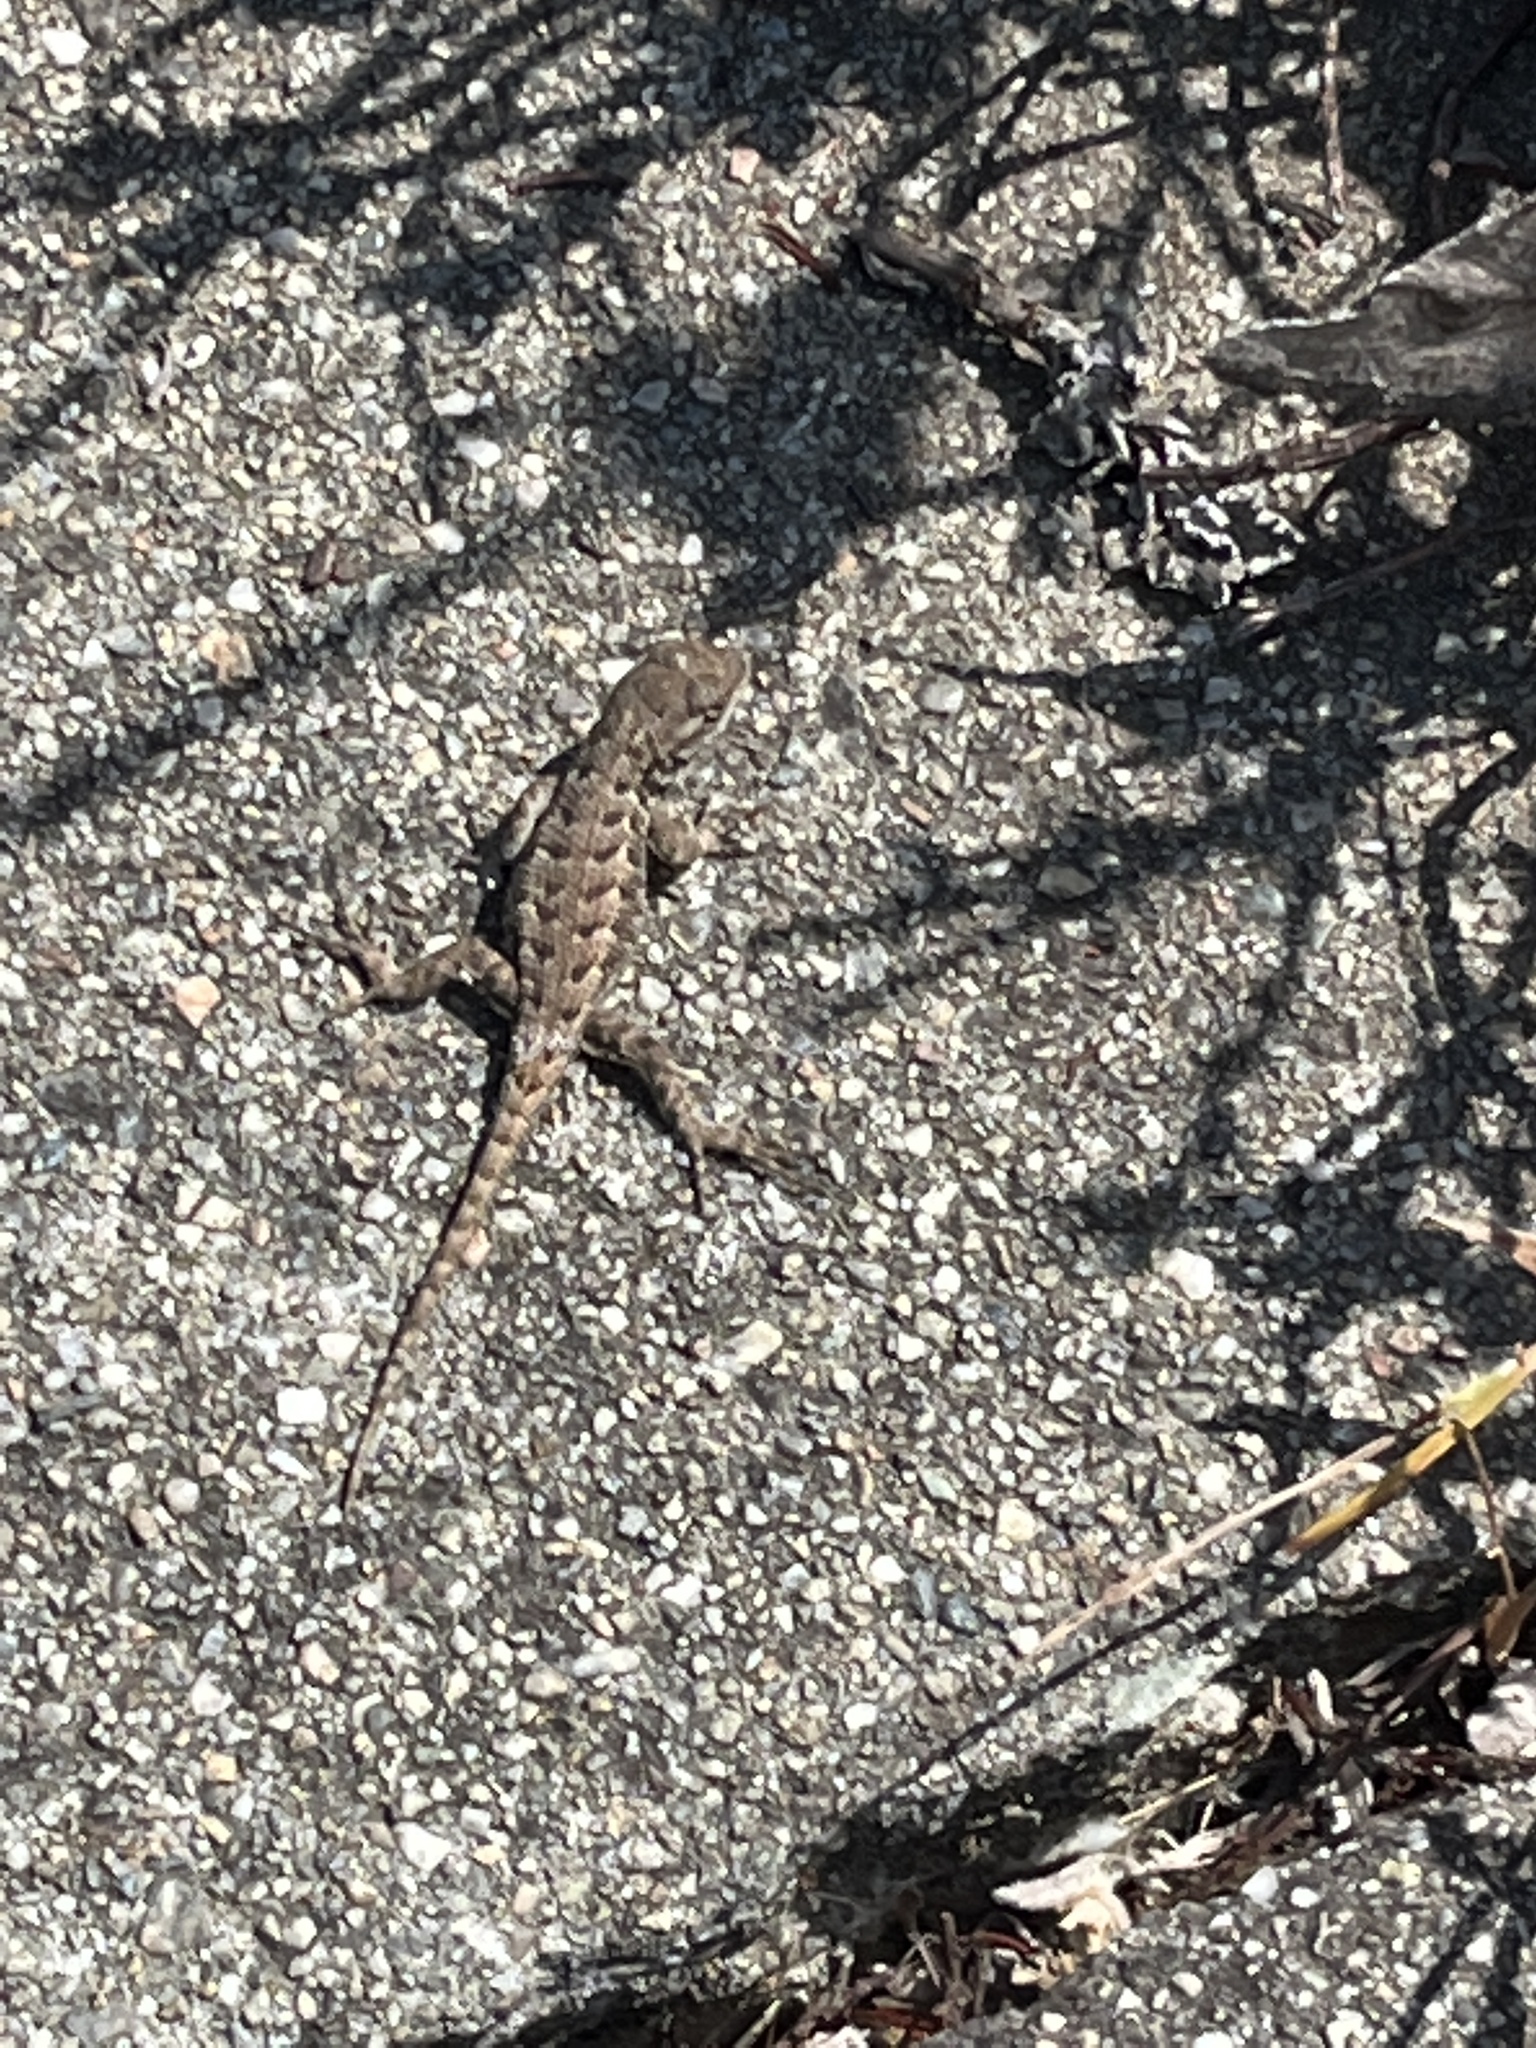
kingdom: Animalia
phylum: Chordata
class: Squamata
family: Phrynosomatidae
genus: Sceloporus
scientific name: Sceloporus occidentalis
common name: Western fence lizard
